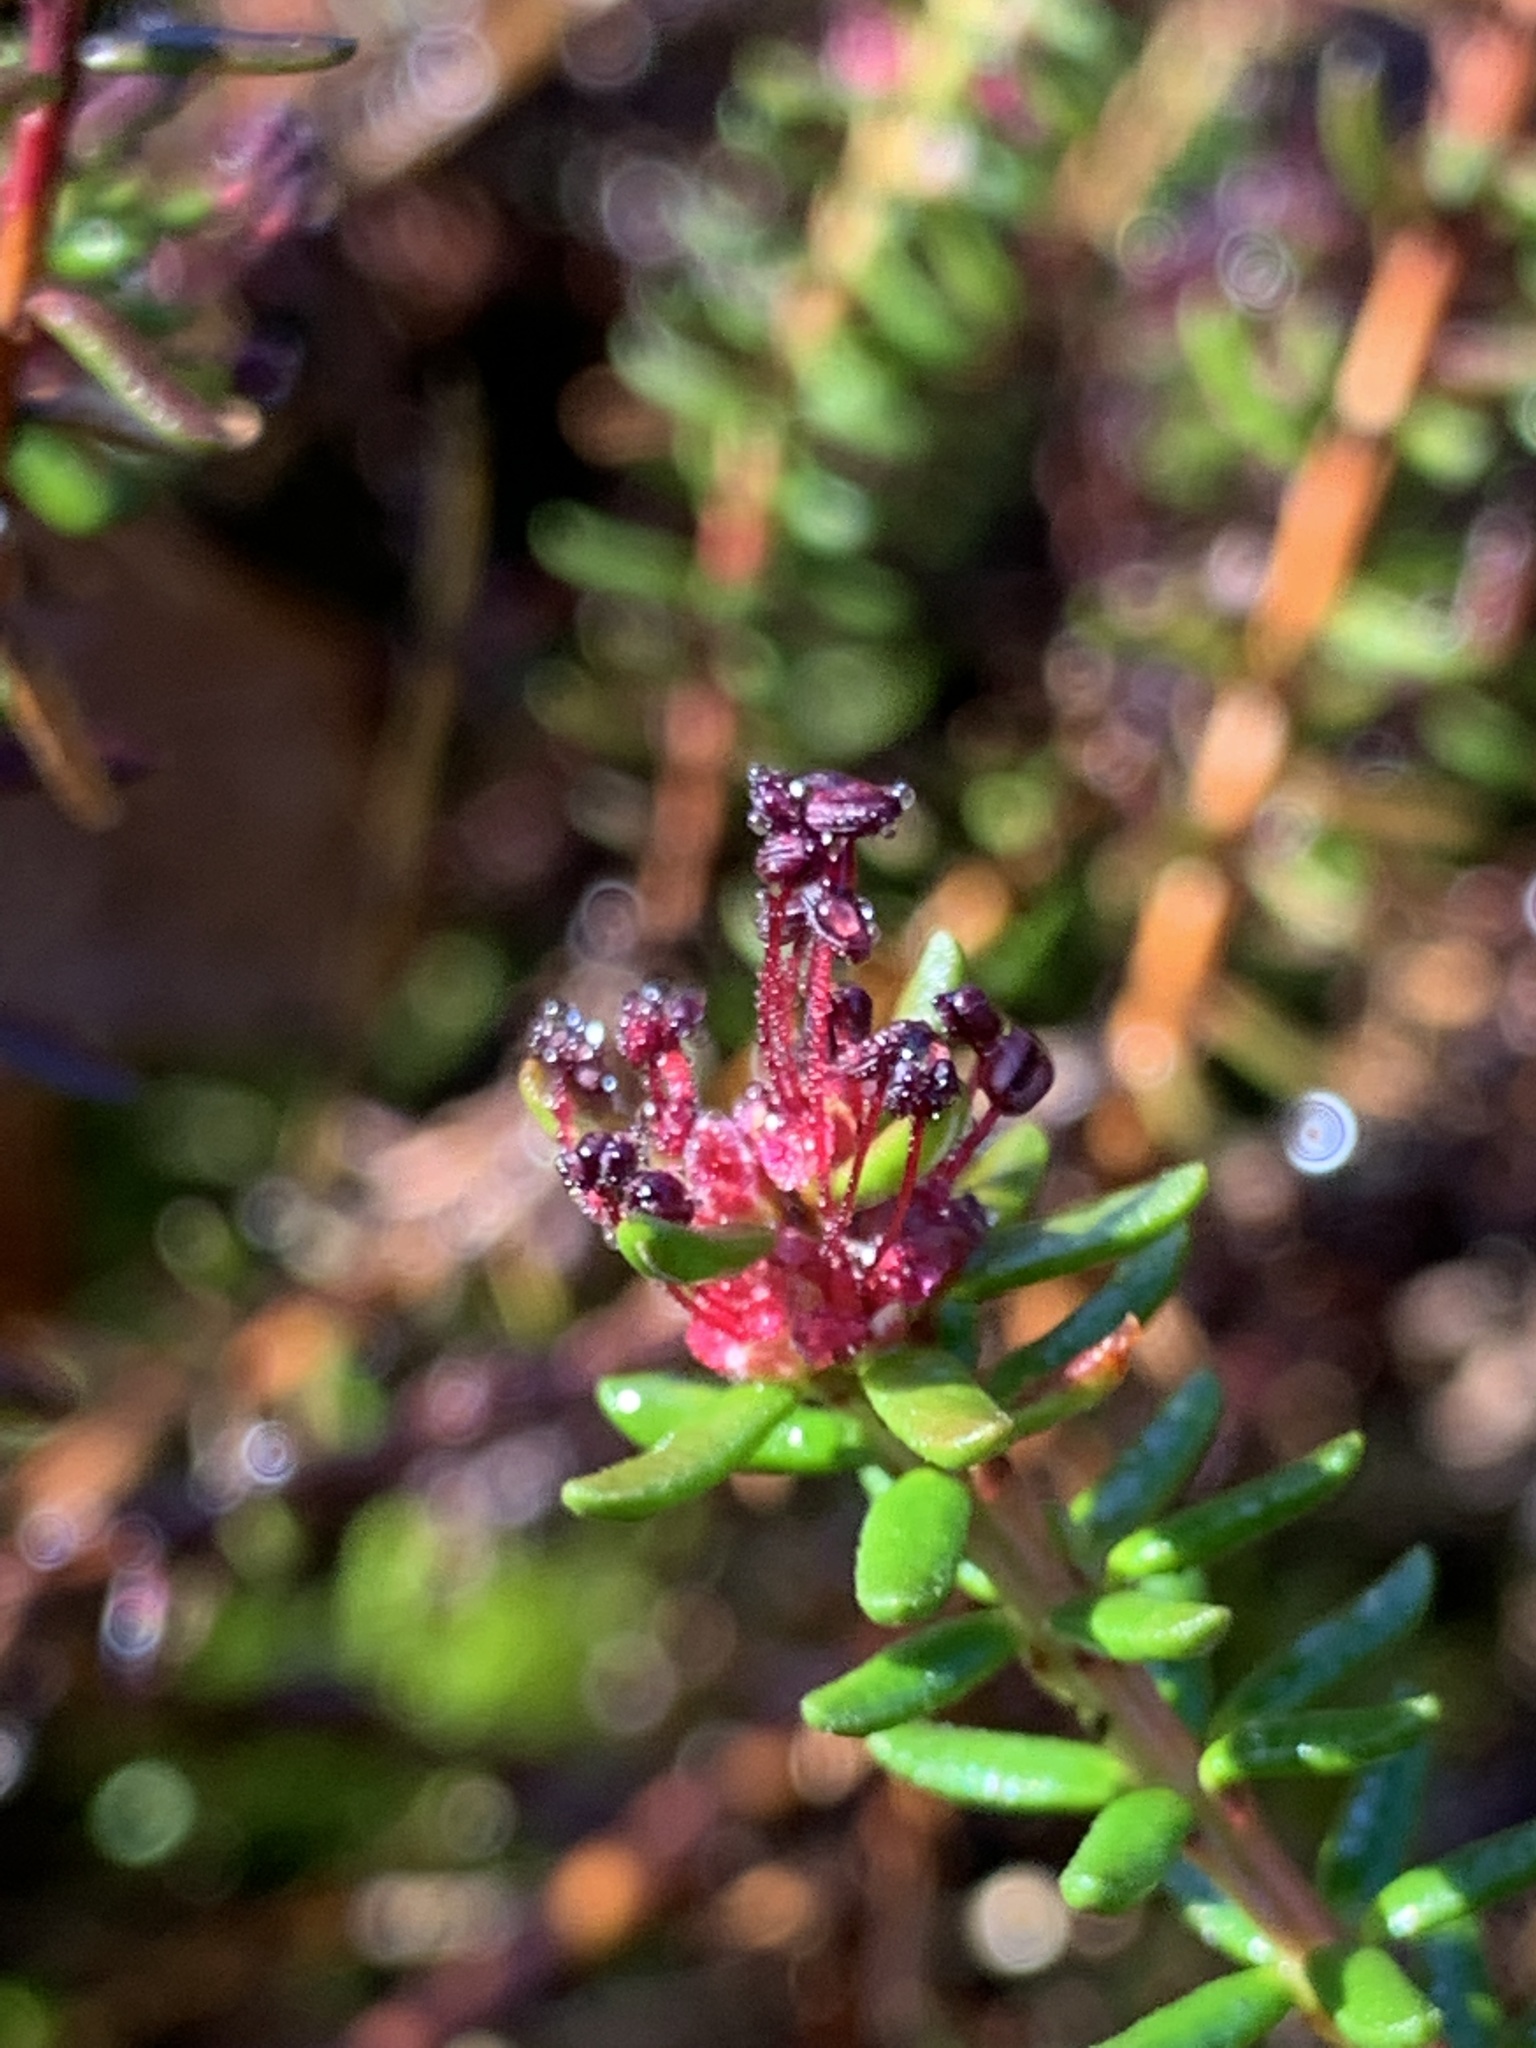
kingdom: Plantae
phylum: Tracheophyta
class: Magnoliopsida
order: Ericales
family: Ericaceae
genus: Empetrum
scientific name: Empetrum nigrum
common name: Black crowberry
